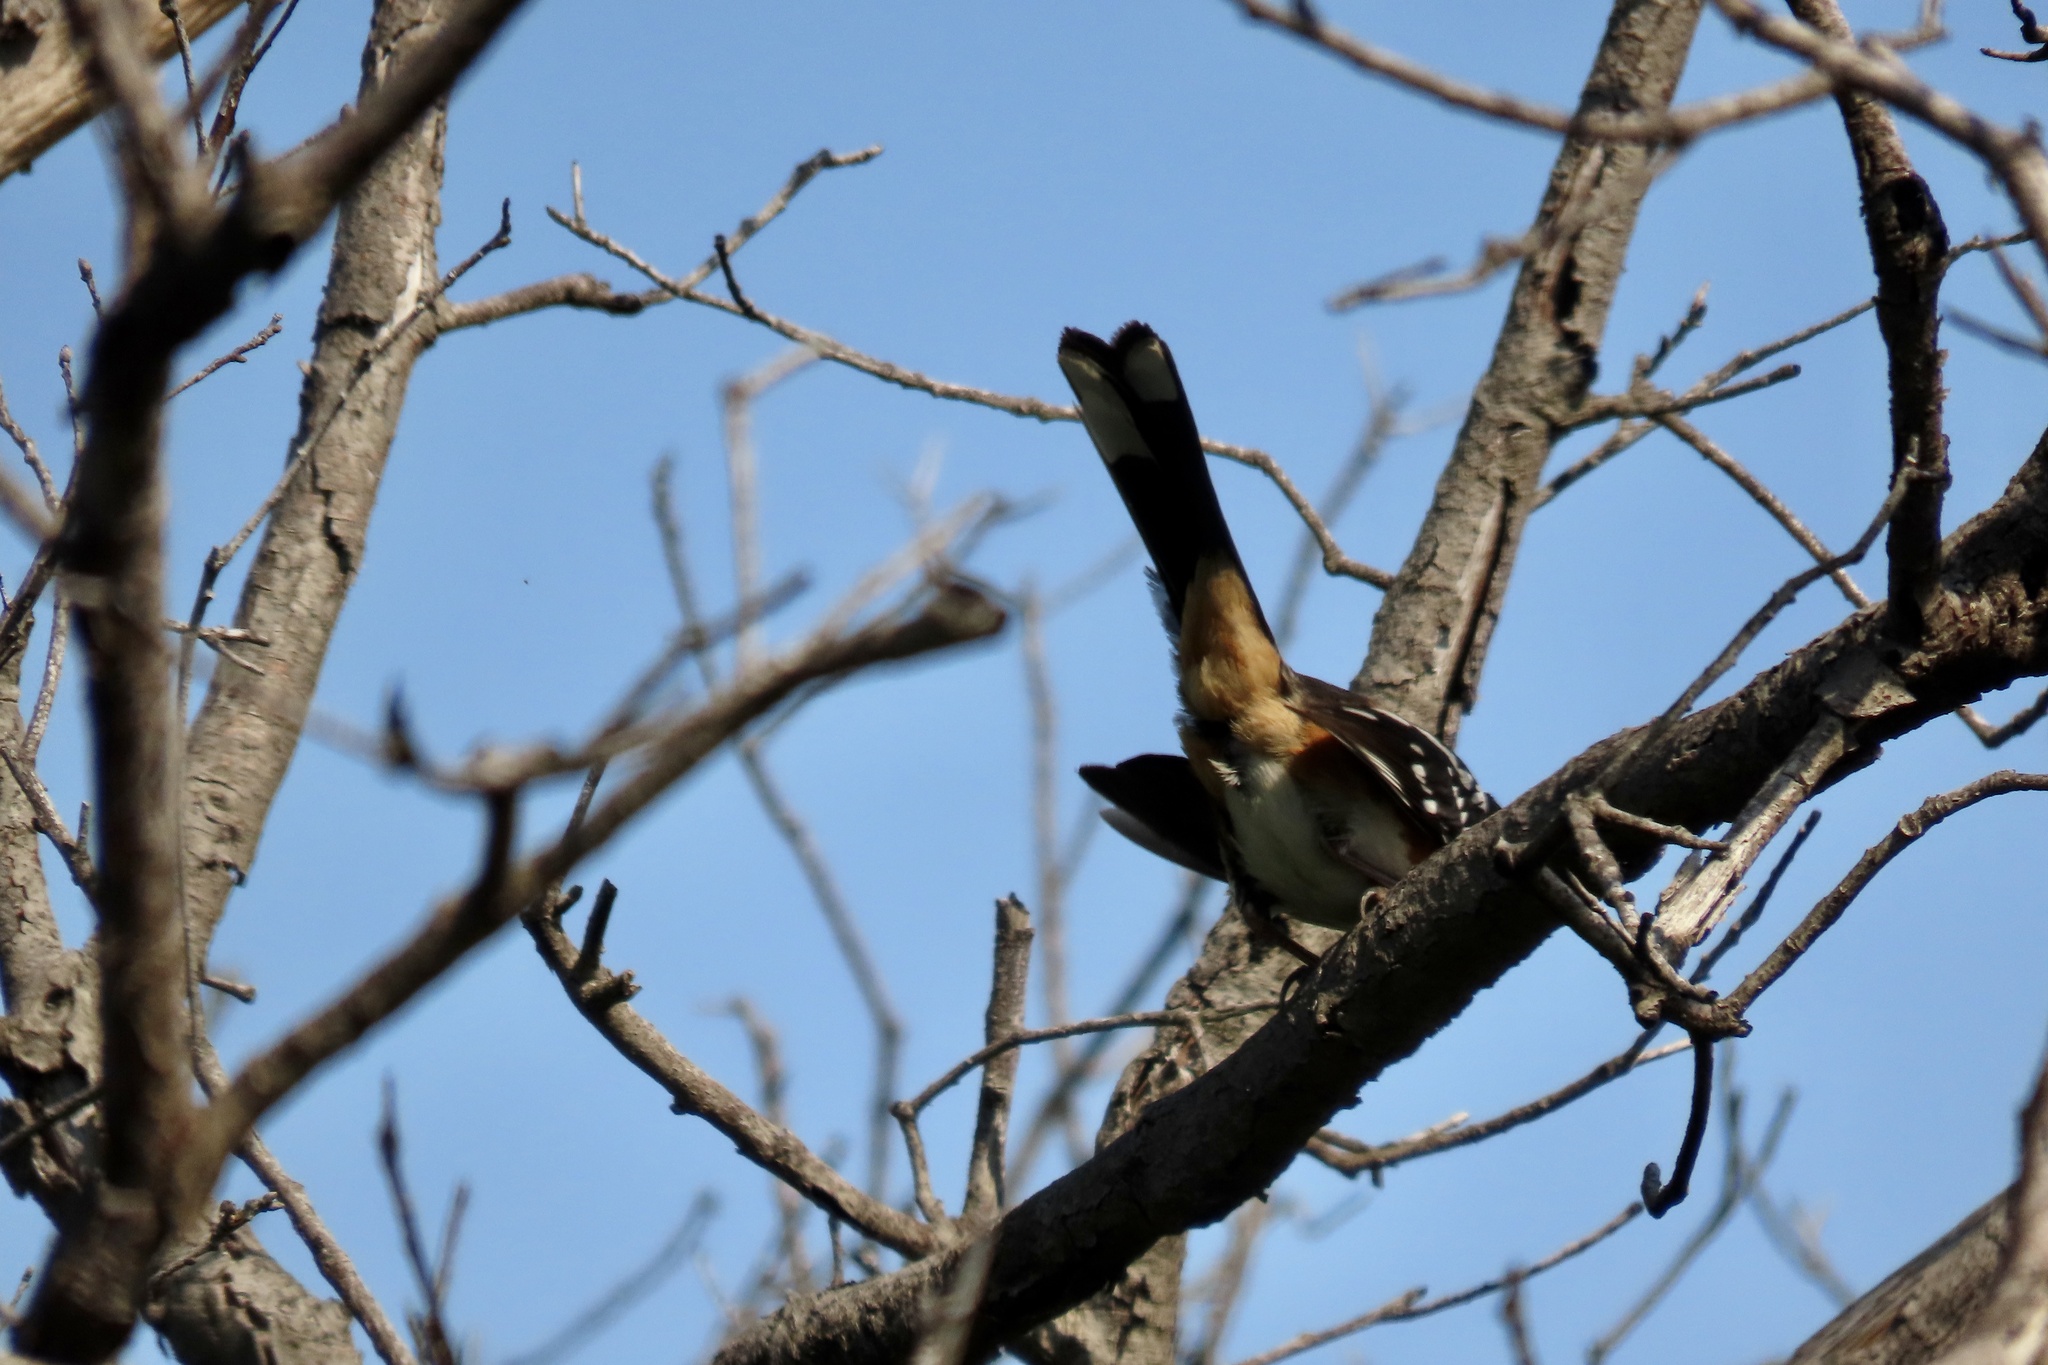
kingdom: Animalia
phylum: Chordata
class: Aves
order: Passeriformes
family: Passerellidae
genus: Pipilo
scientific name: Pipilo maculatus
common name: Spotted towhee
